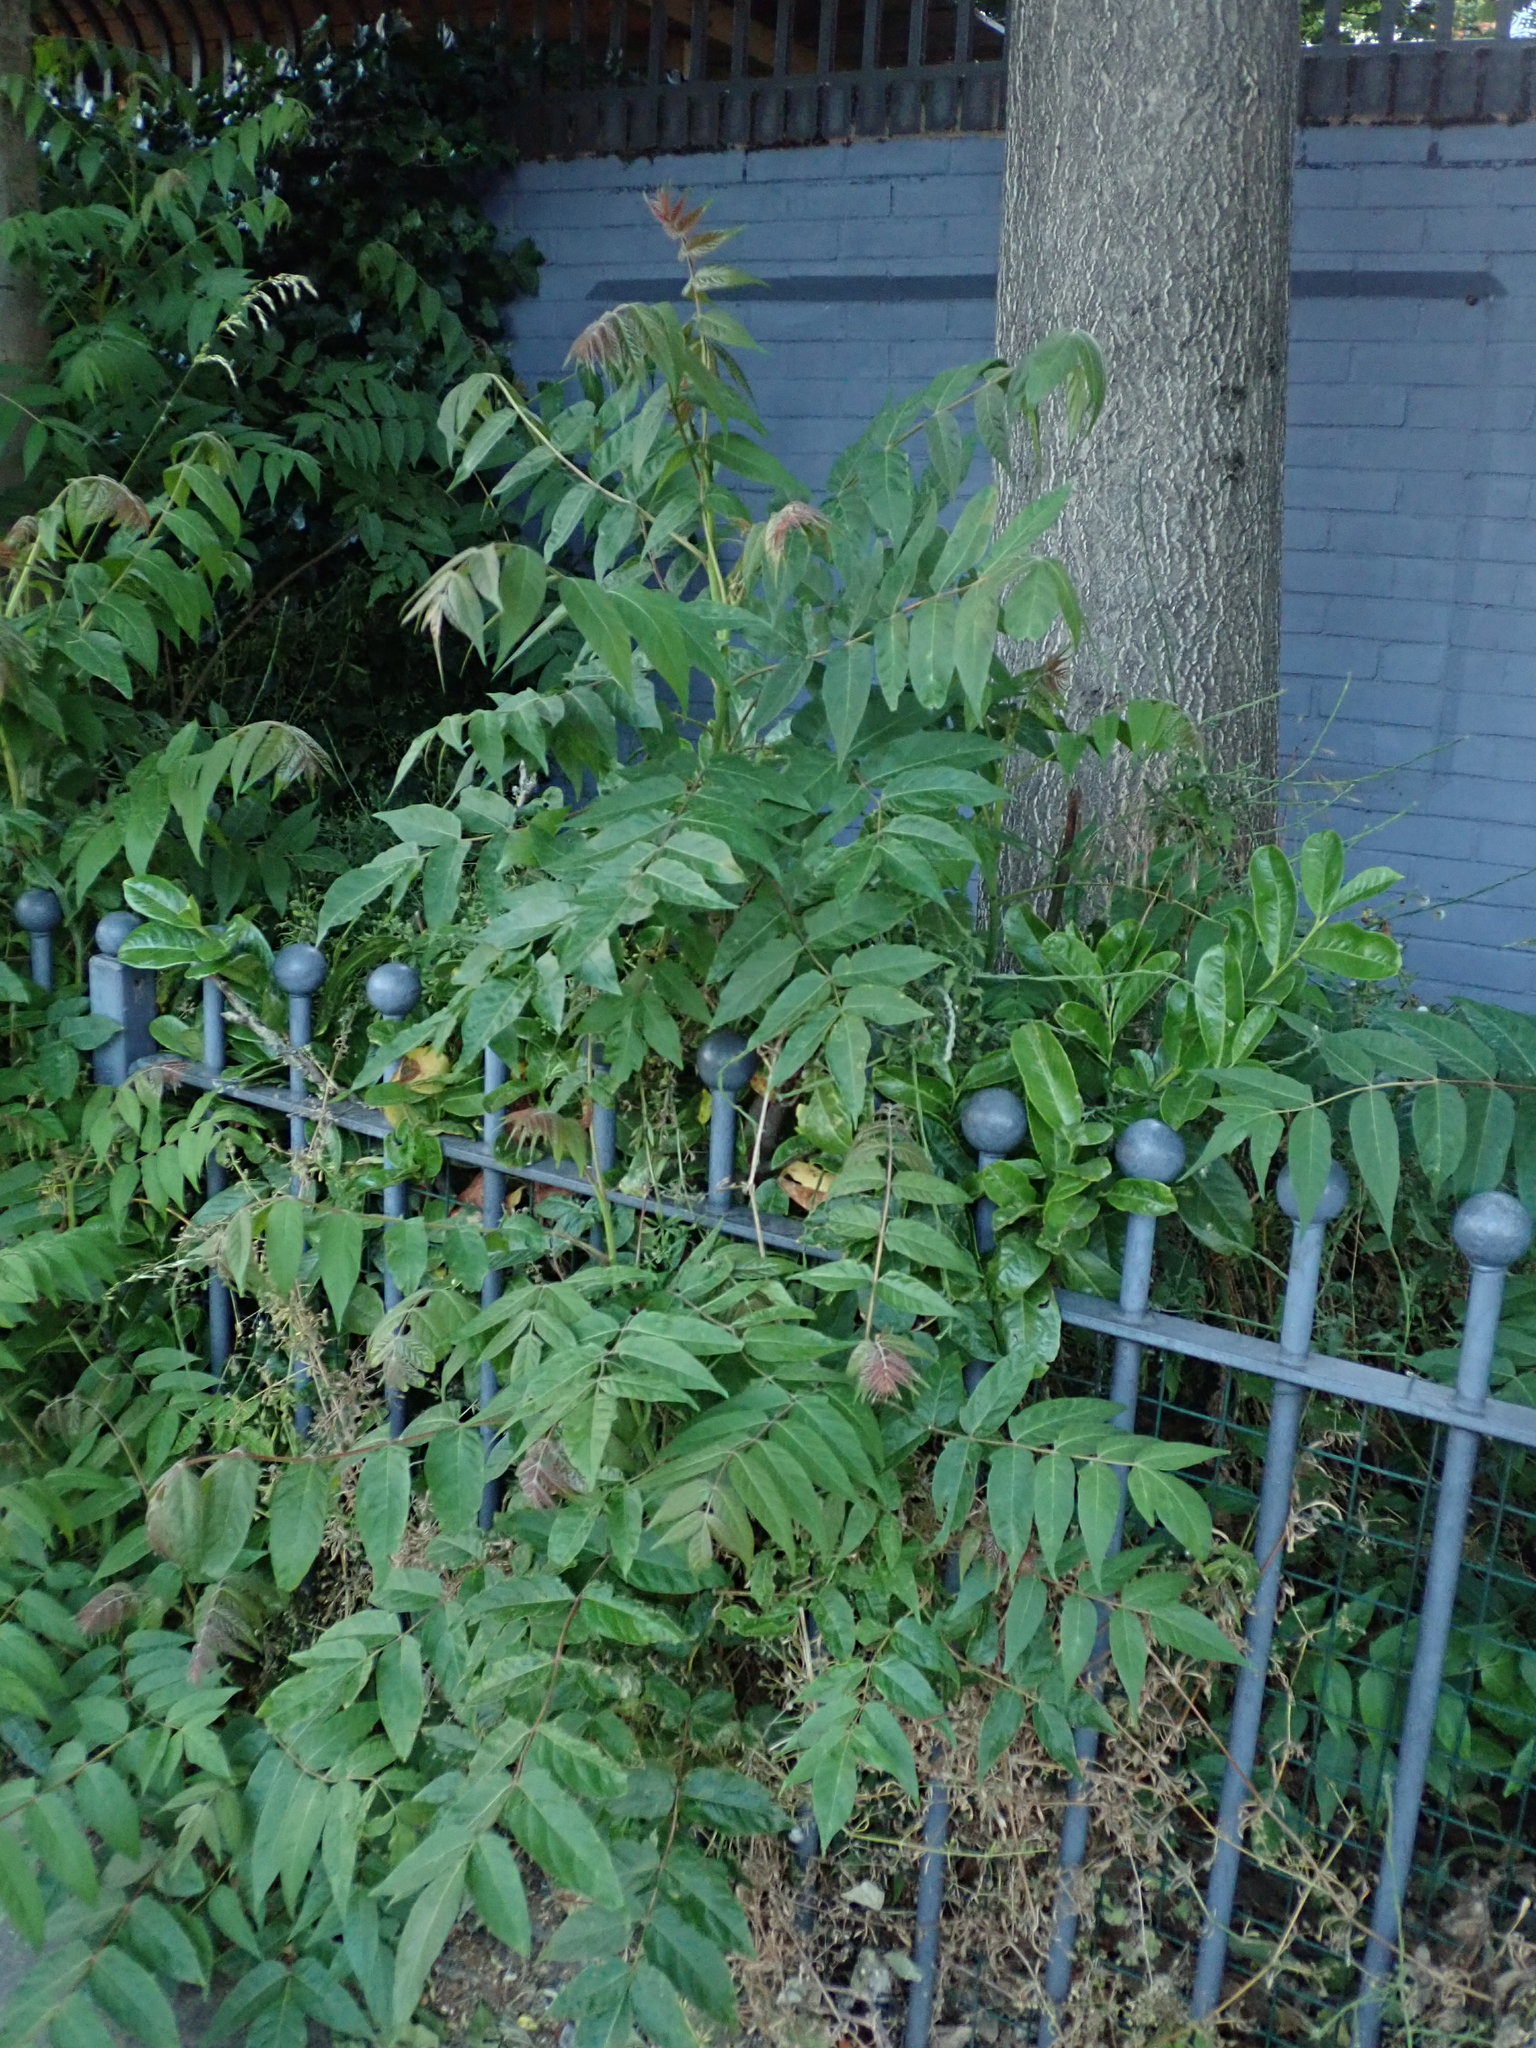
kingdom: Plantae
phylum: Tracheophyta
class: Magnoliopsida
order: Sapindales
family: Simaroubaceae
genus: Ailanthus
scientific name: Ailanthus altissima
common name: Tree-of-heaven
